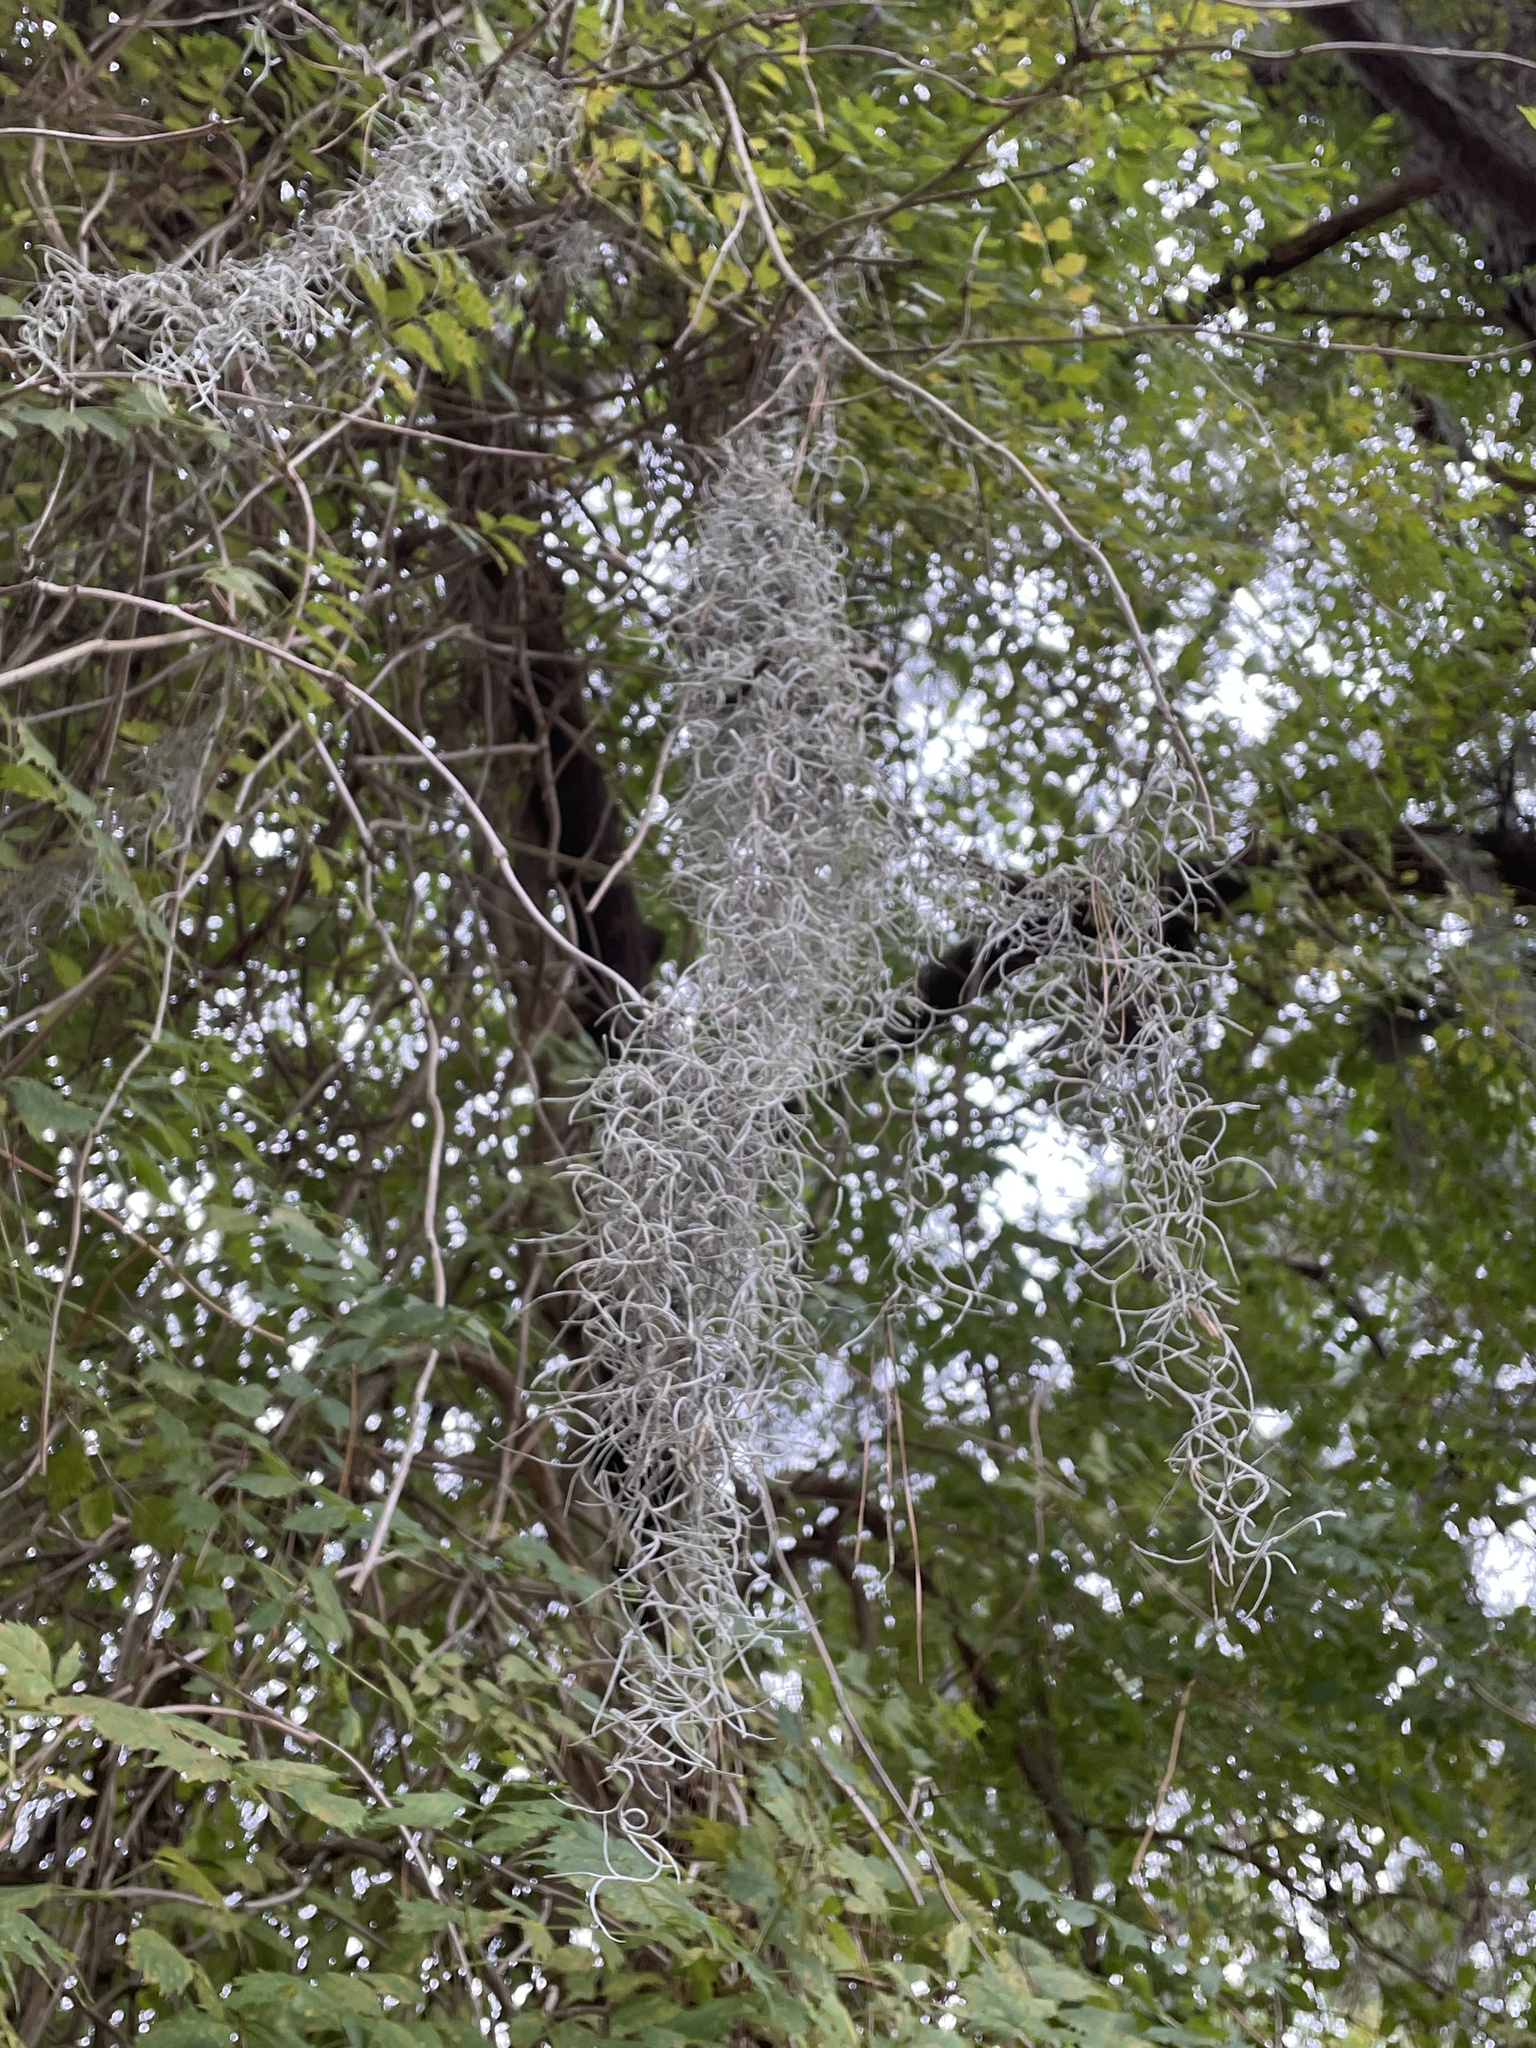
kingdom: Plantae
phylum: Tracheophyta
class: Liliopsida
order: Poales
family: Bromeliaceae
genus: Tillandsia
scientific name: Tillandsia usneoides
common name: Spanish moss
